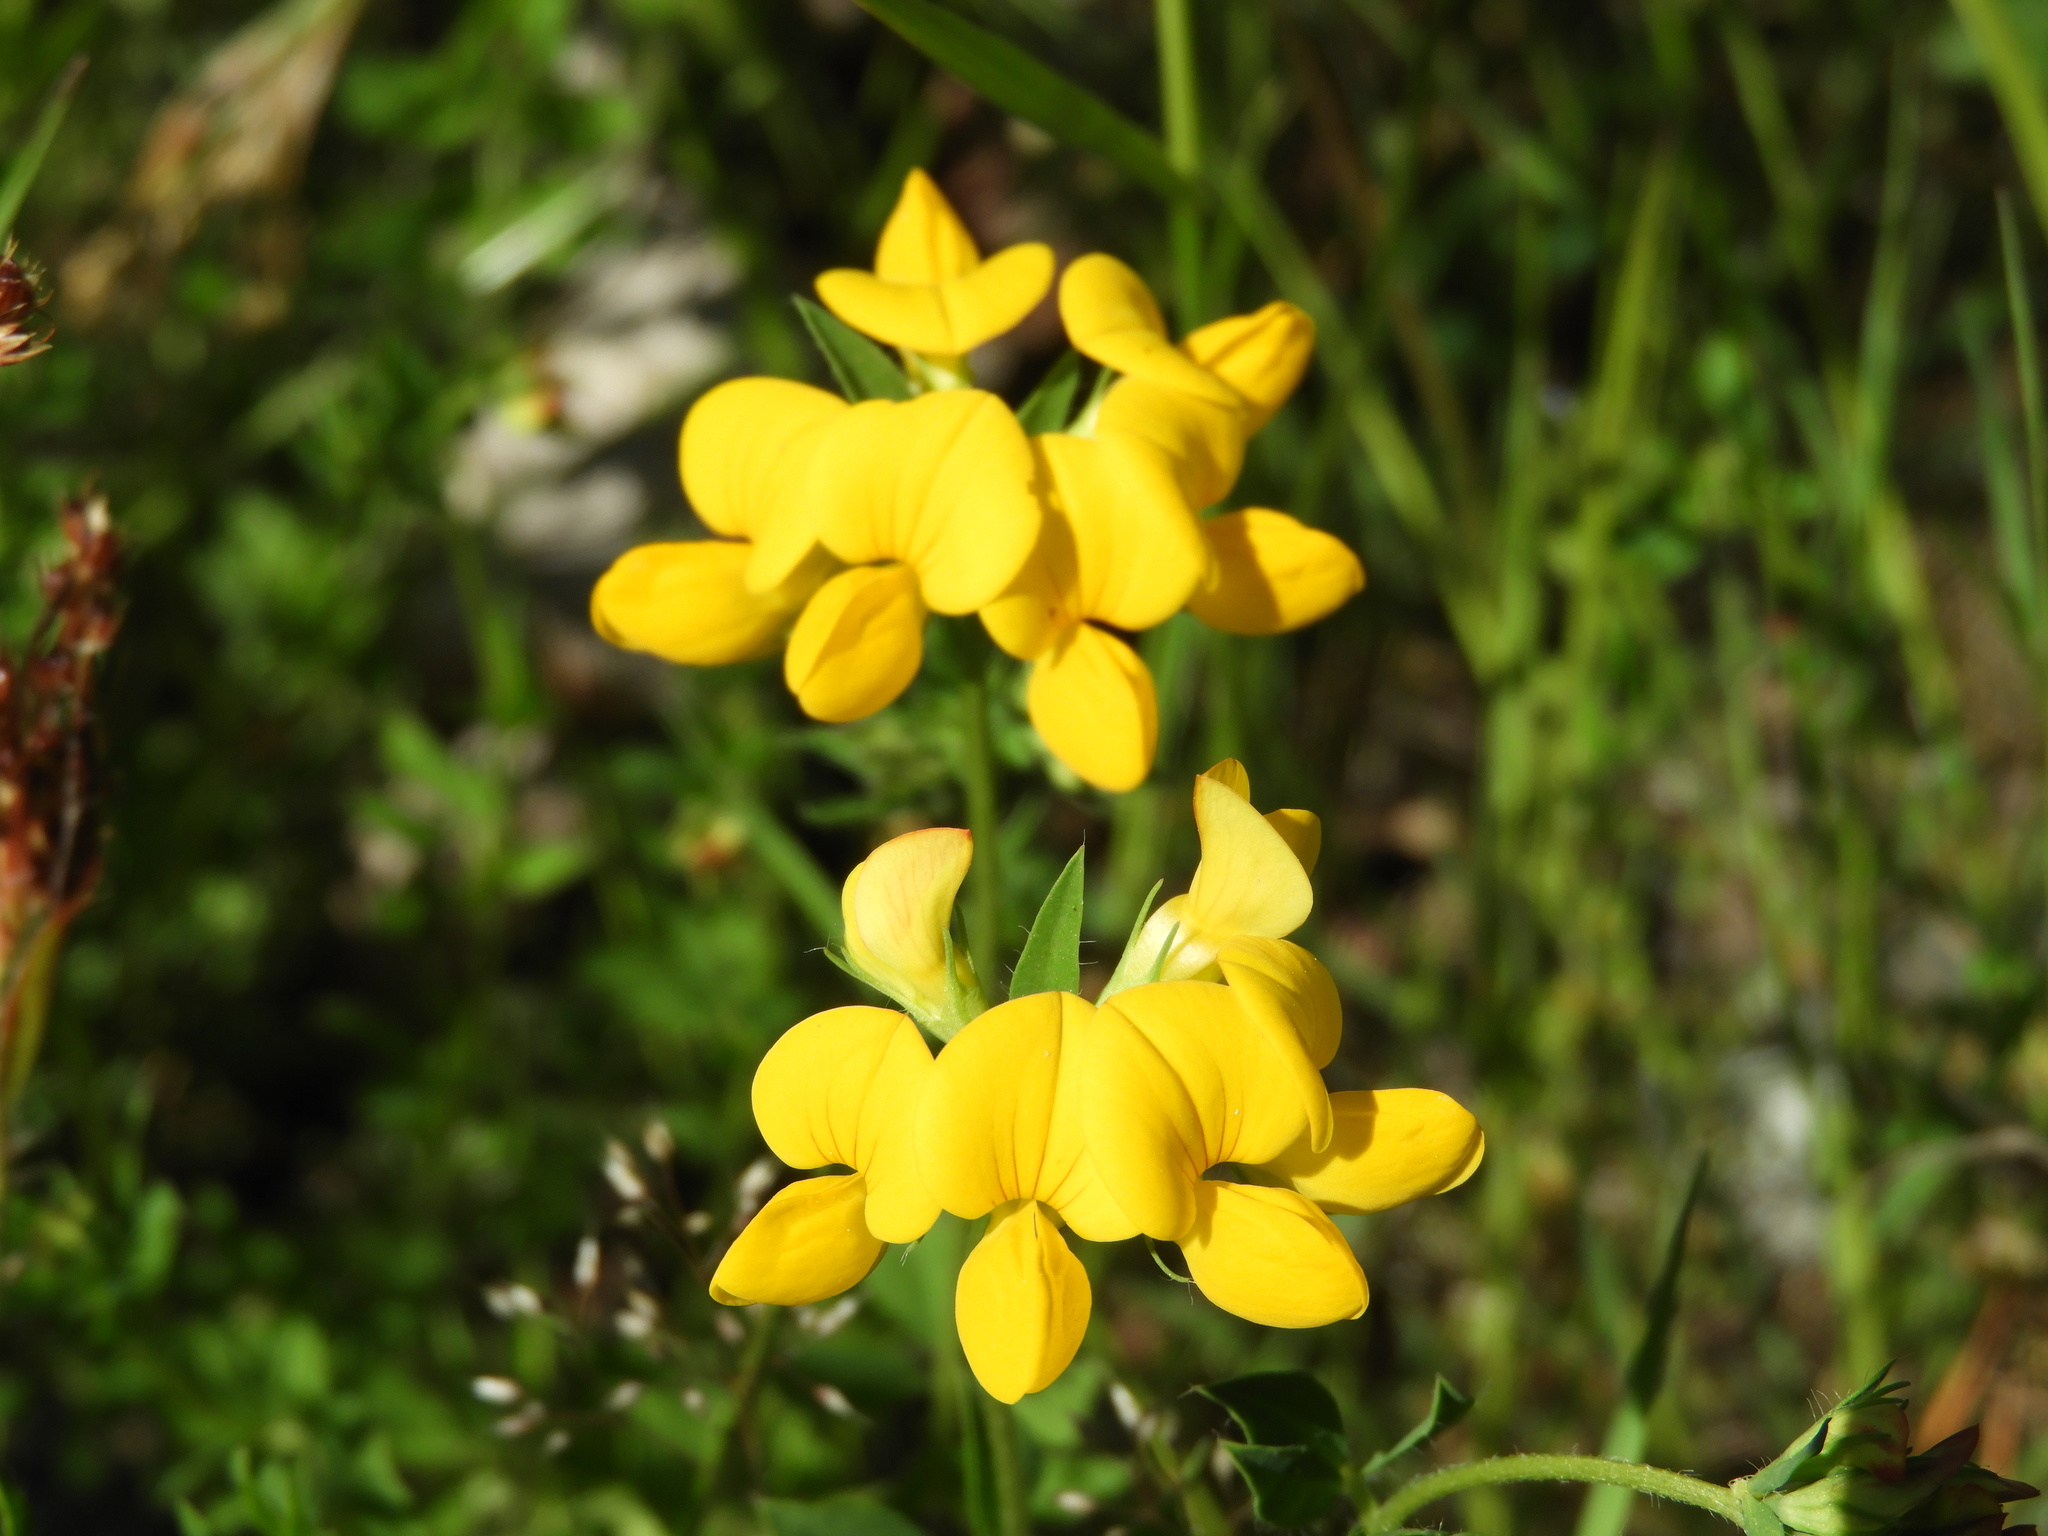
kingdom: Plantae
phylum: Tracheophyta
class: Magnoliopsida
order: Fabales
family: Fabaceae
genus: Lotus
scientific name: Lotus corniculatus
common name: Common bird's-foot-trefoil
